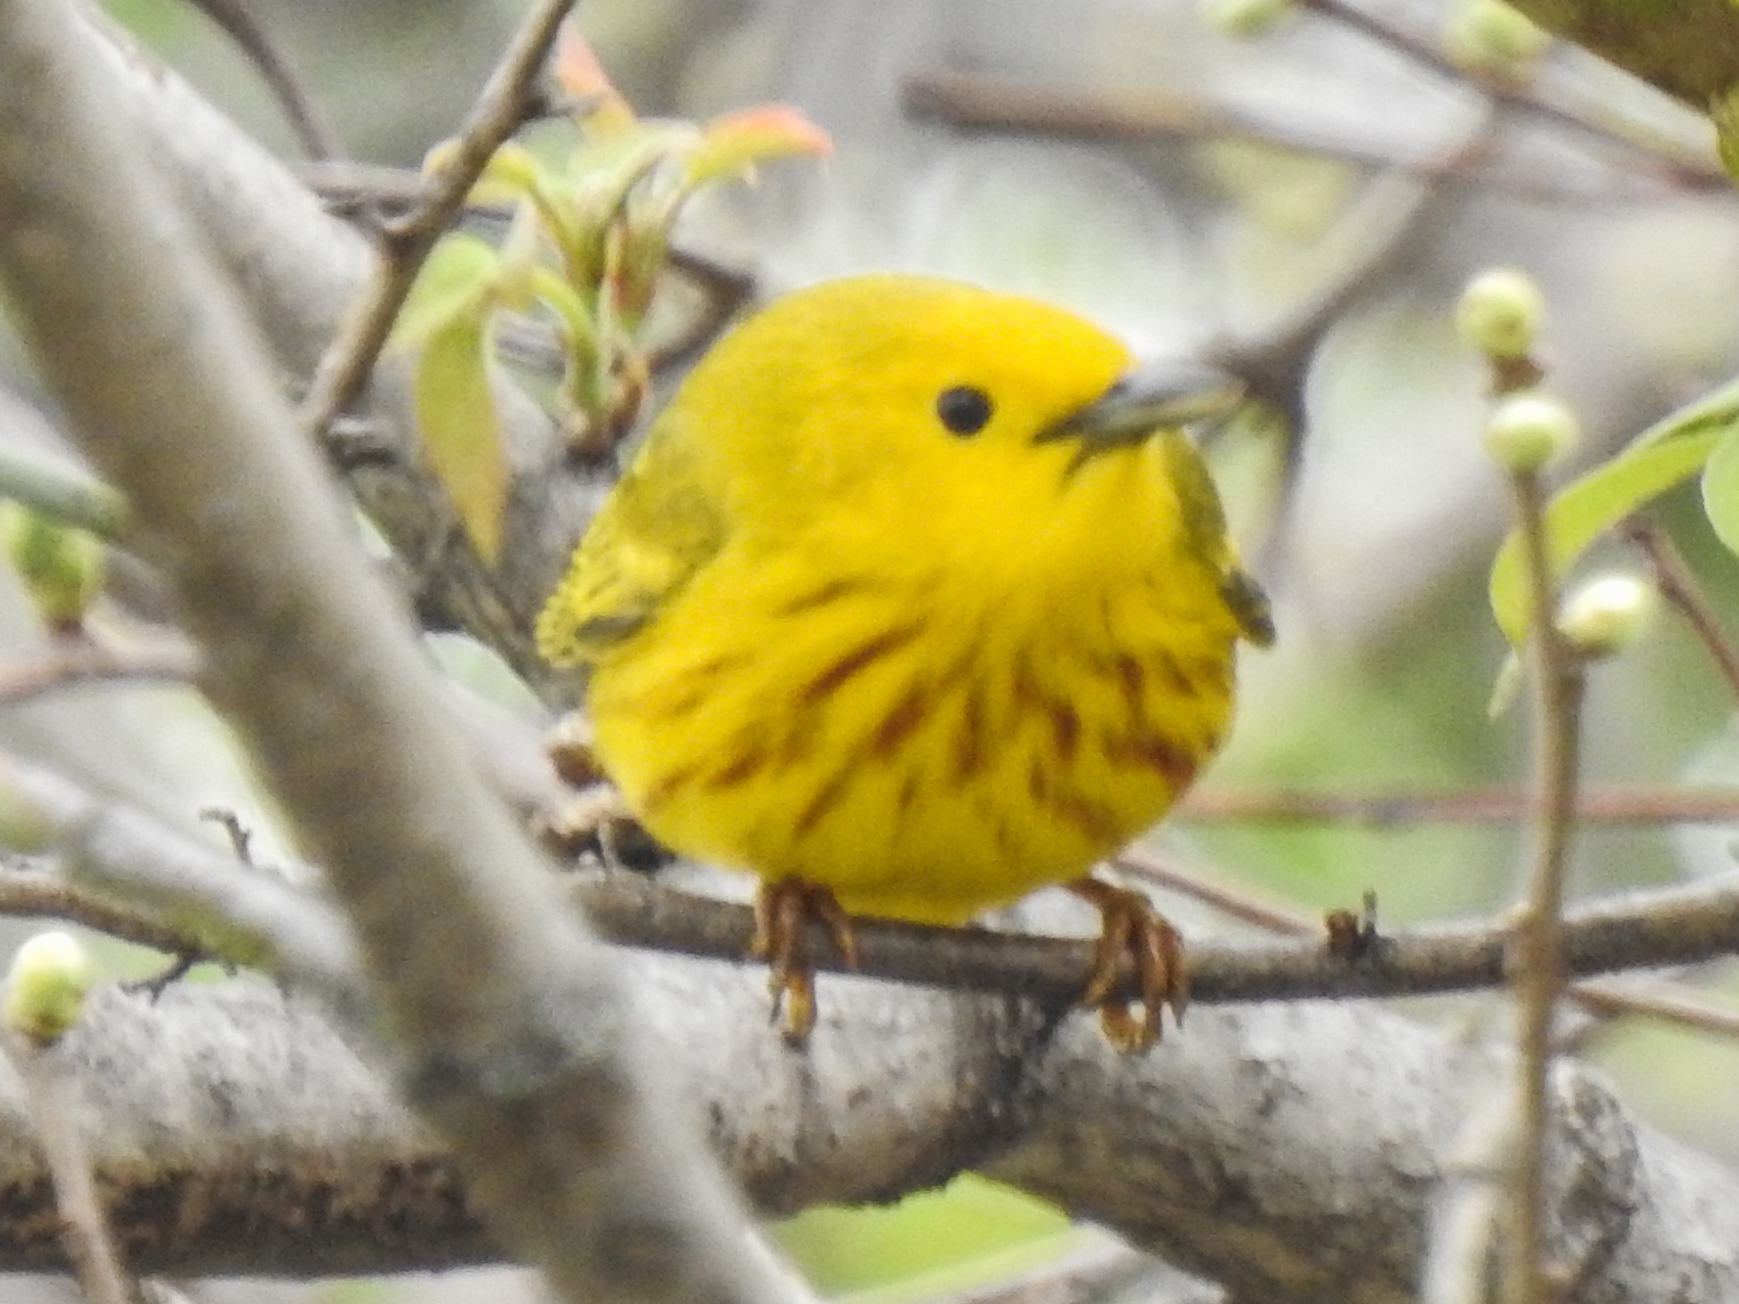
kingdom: Animalia
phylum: Chordata
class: Aves
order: Passeriformes
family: Parulidae
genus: Setophaga
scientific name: Setophaga petechia
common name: Yellow warbler
